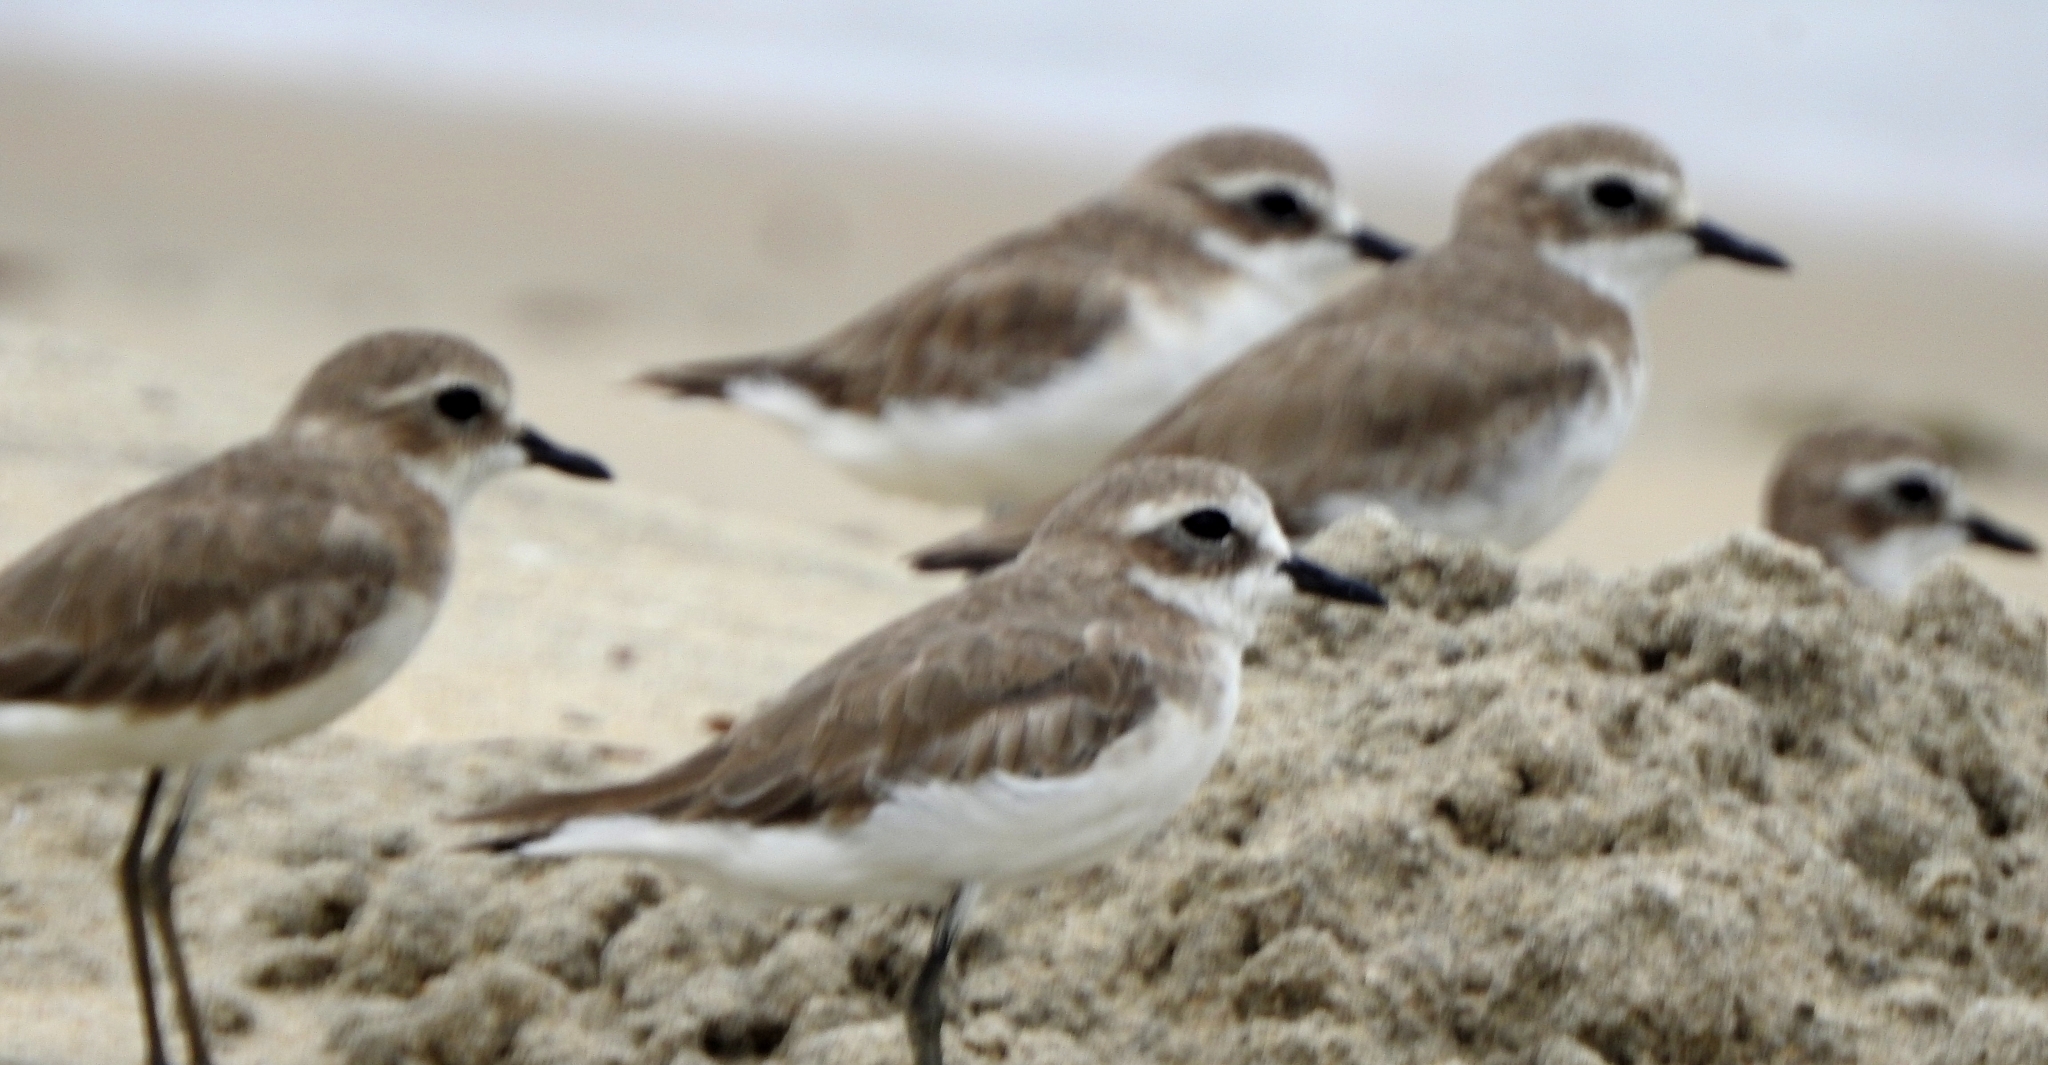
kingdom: Animalia
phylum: Chordata
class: Aves
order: Charadriiformes
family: Charadriidae
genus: Anarhynchus
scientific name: Anarhynchus
